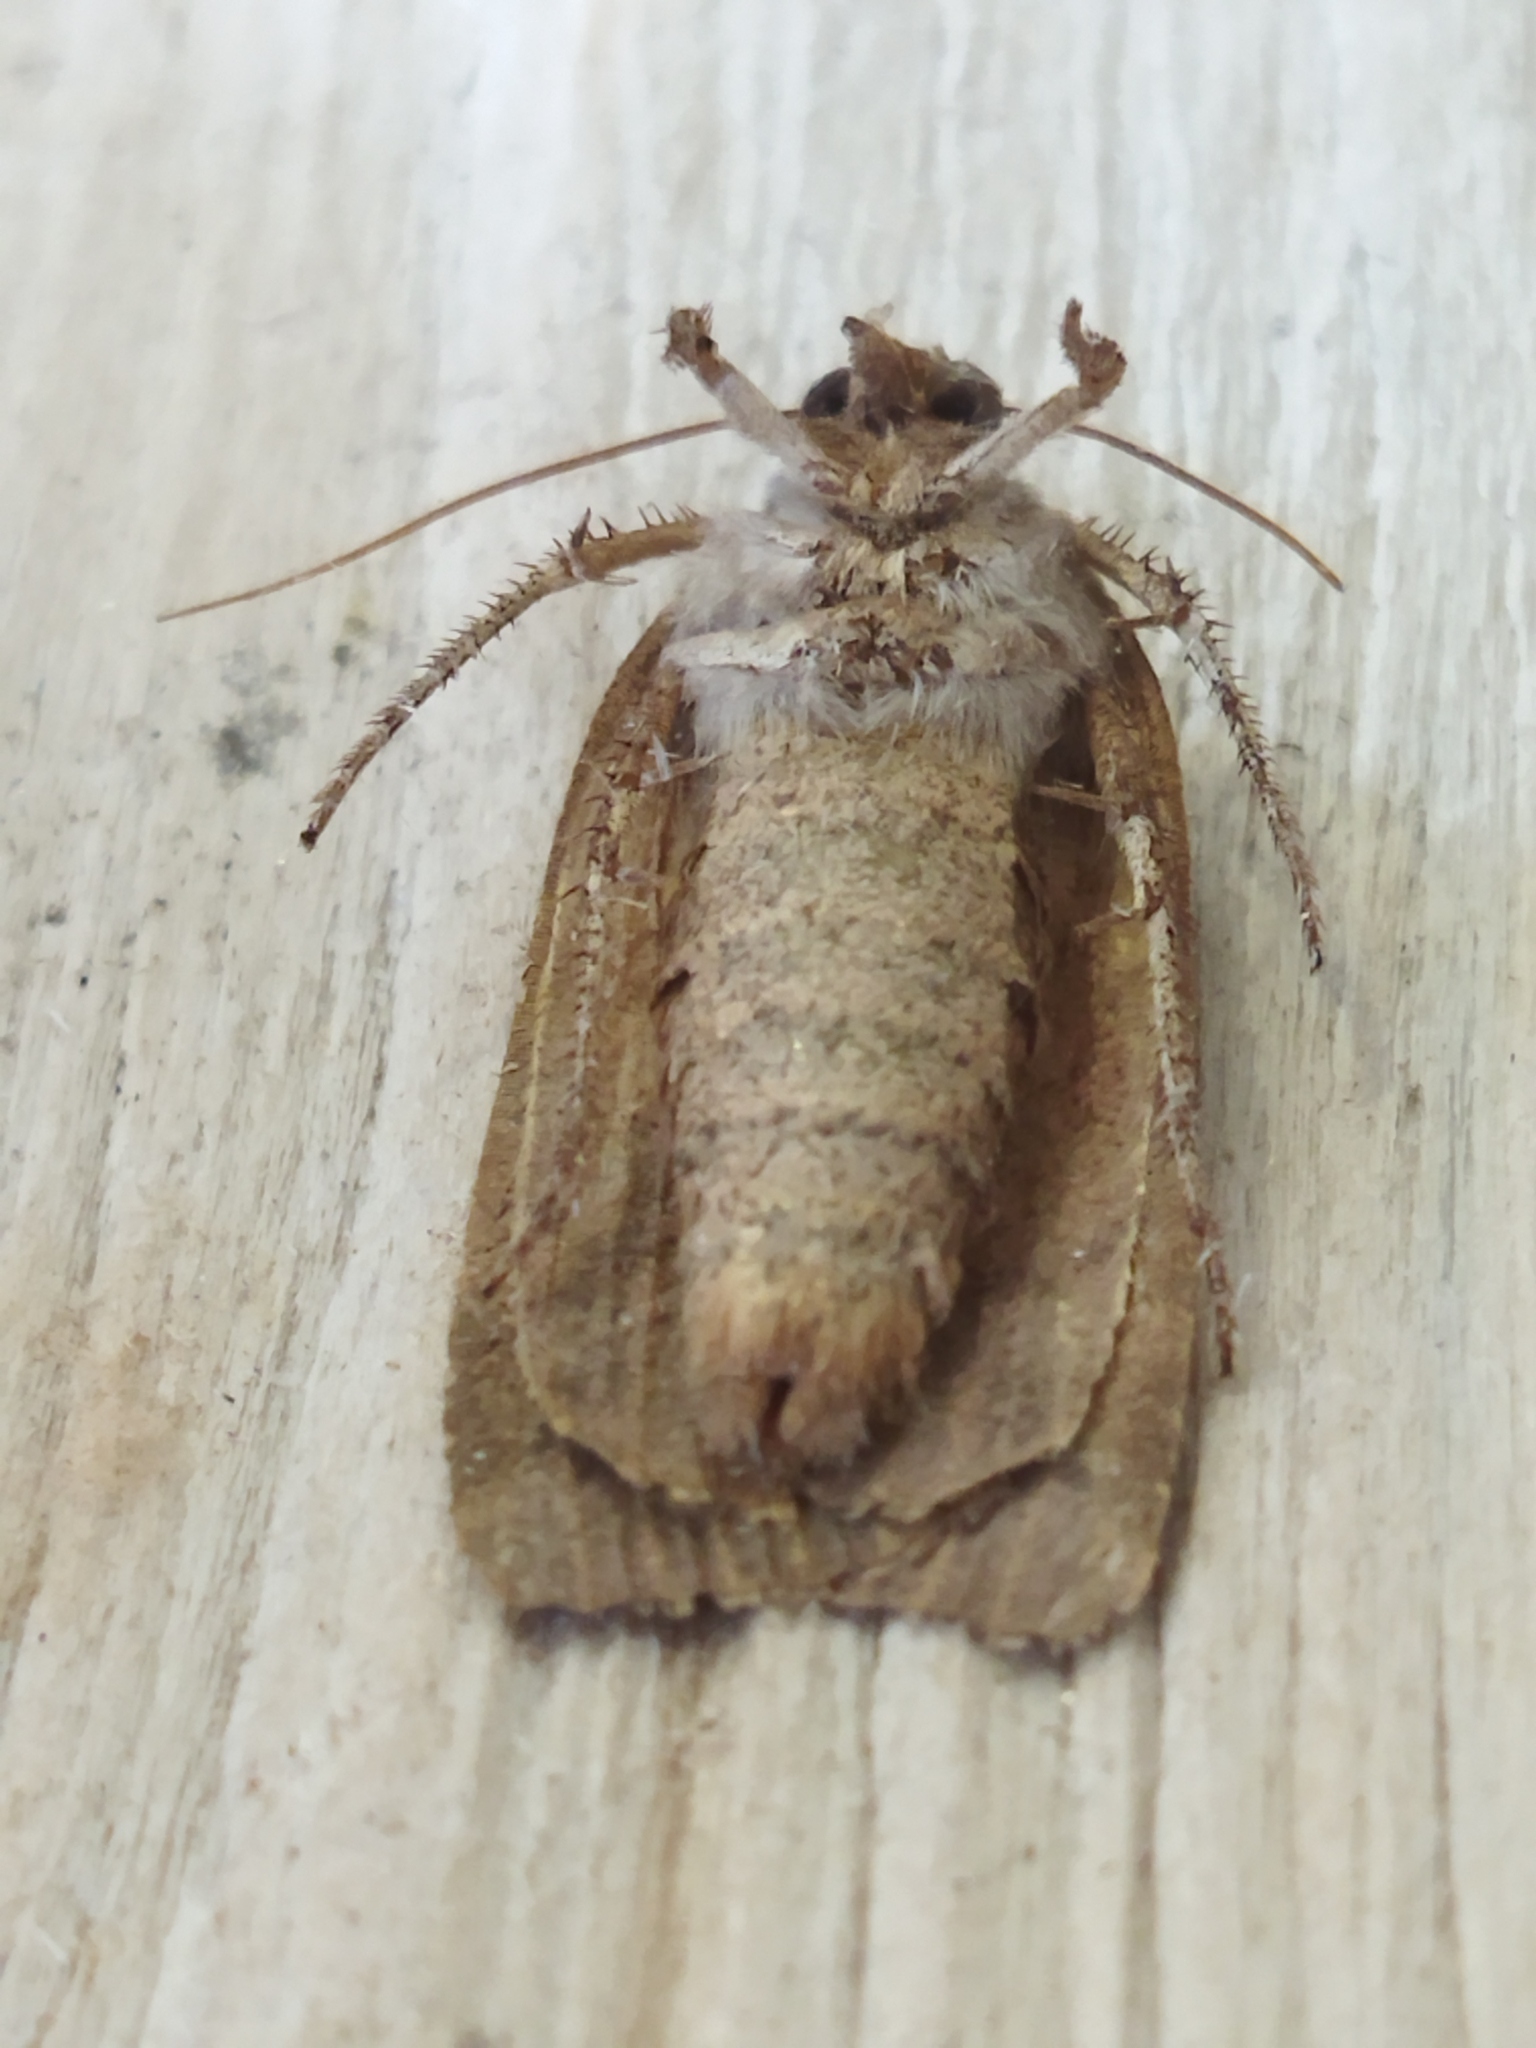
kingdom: Animalia
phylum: Arthropoda
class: Insecta
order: Lepidoptera
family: Noctuidae
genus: Noctua
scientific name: Noctua comes
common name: Lesser yellow underwing
